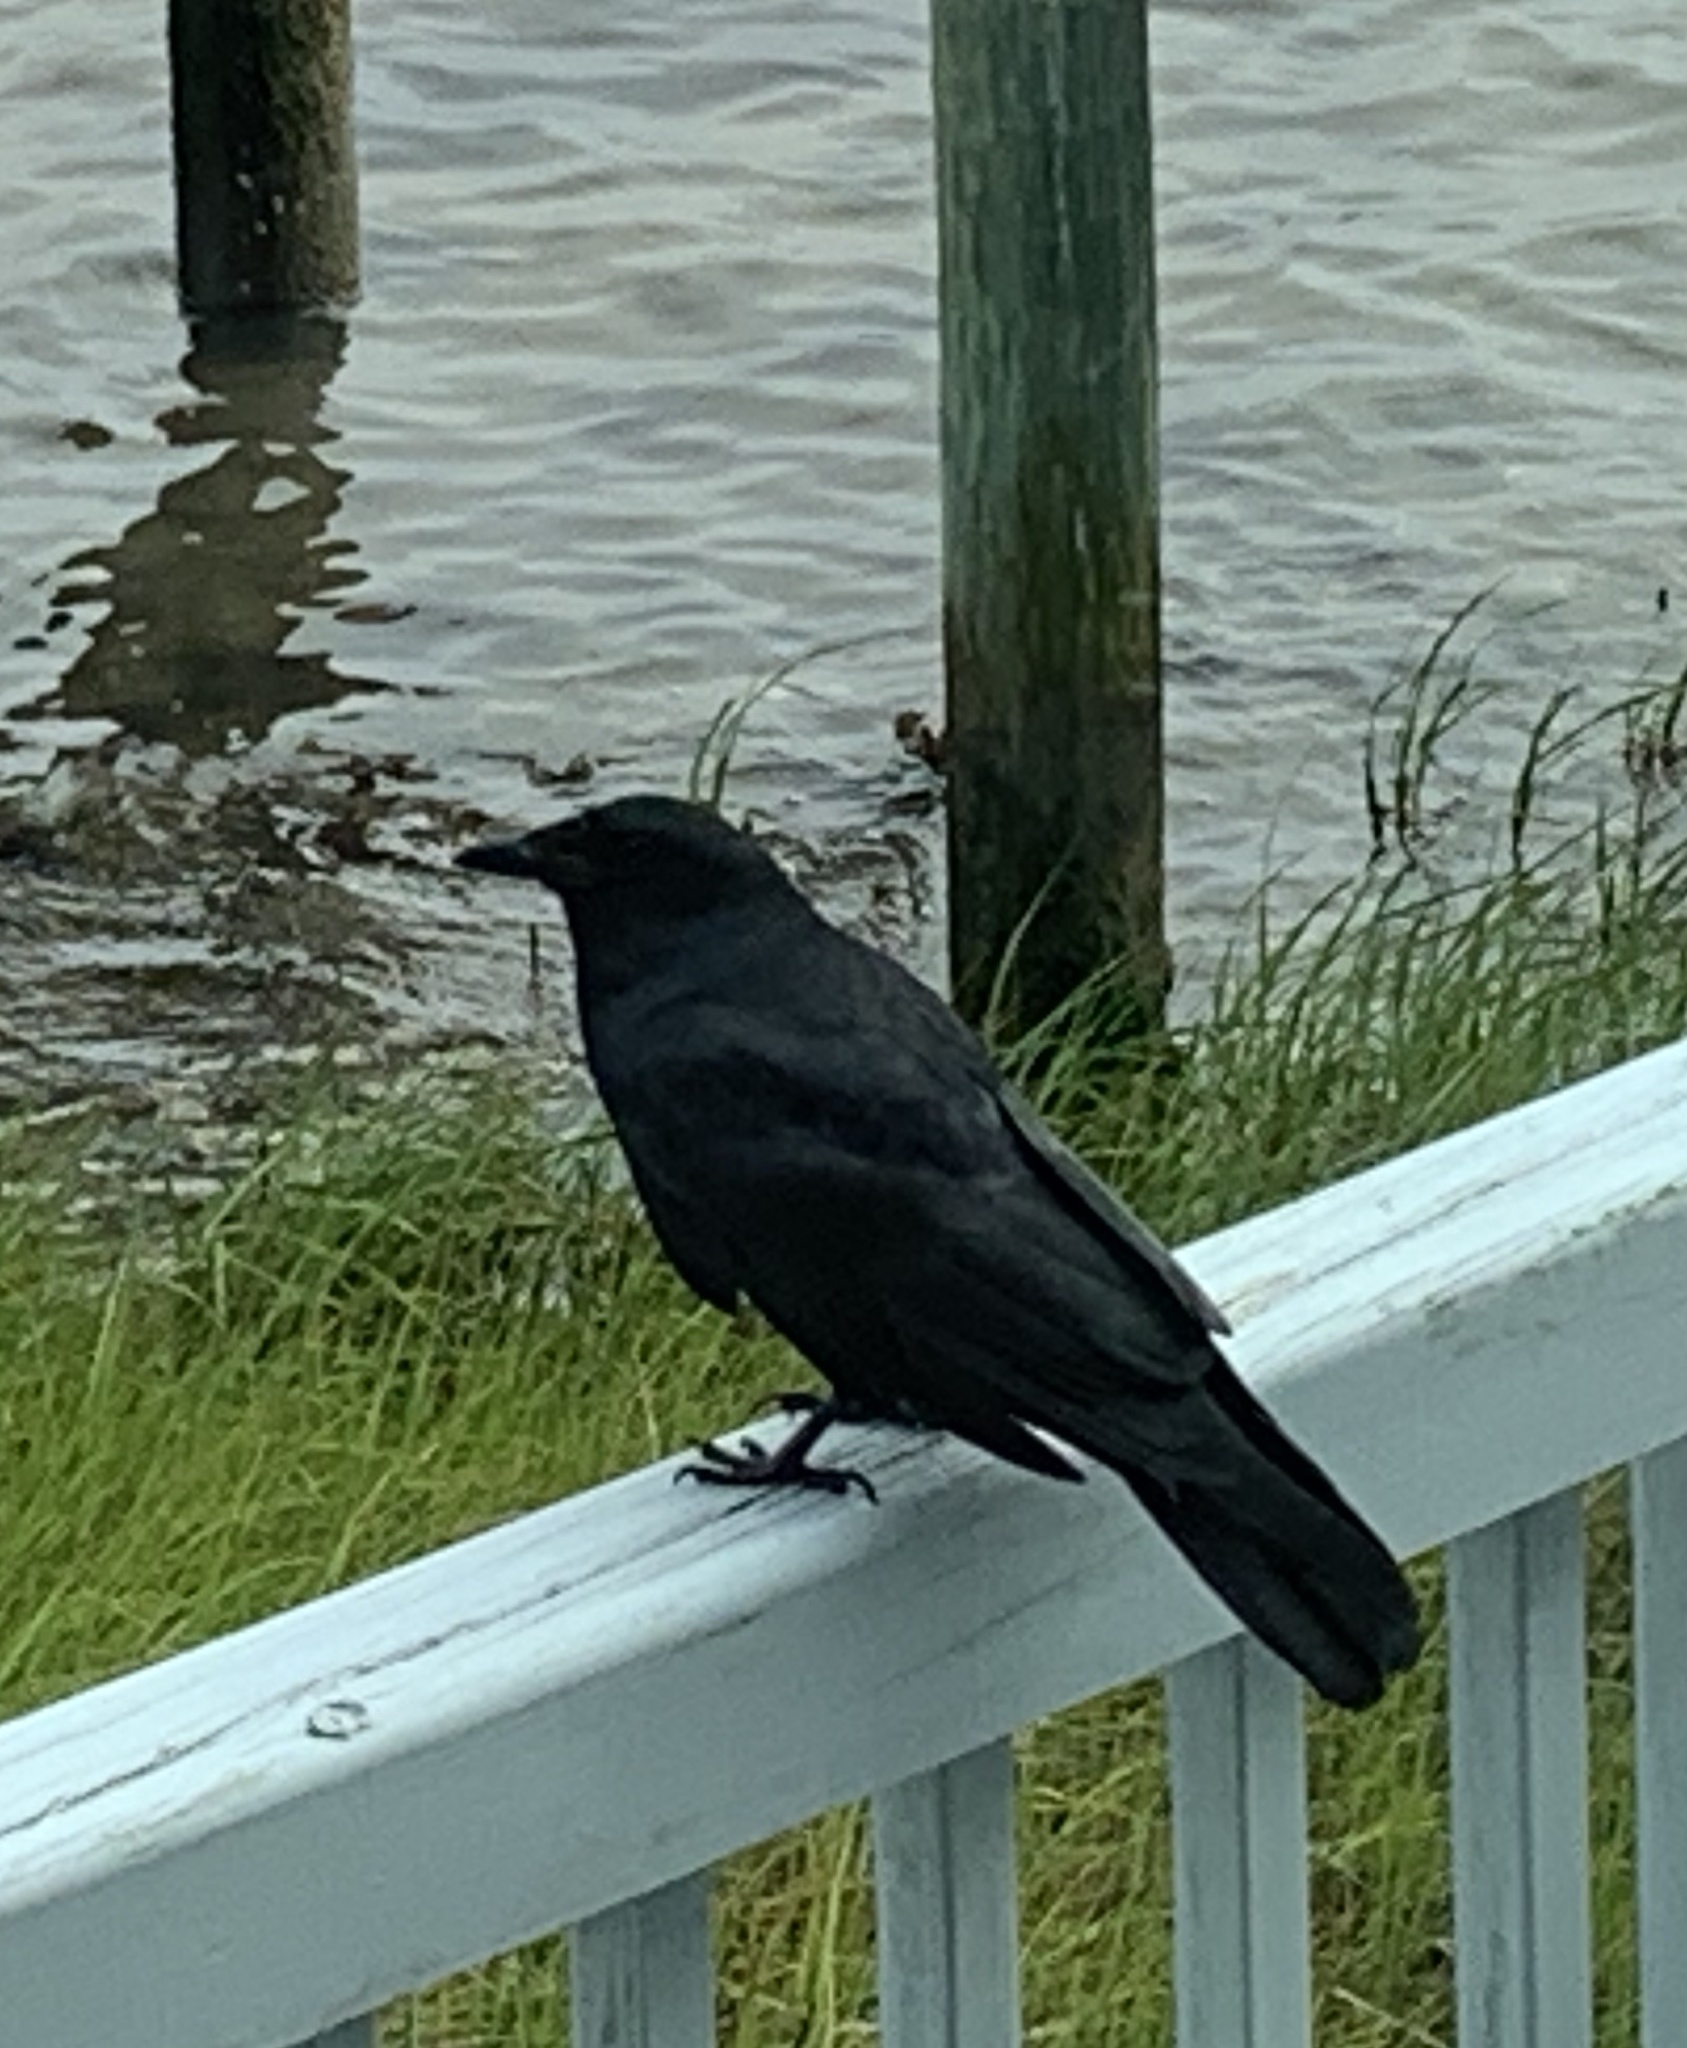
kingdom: Animalia
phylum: Chordata
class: Aves
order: Passeriformes
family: Corvidae
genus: Corvus
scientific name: Corvus ossifragus
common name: Fish crow
